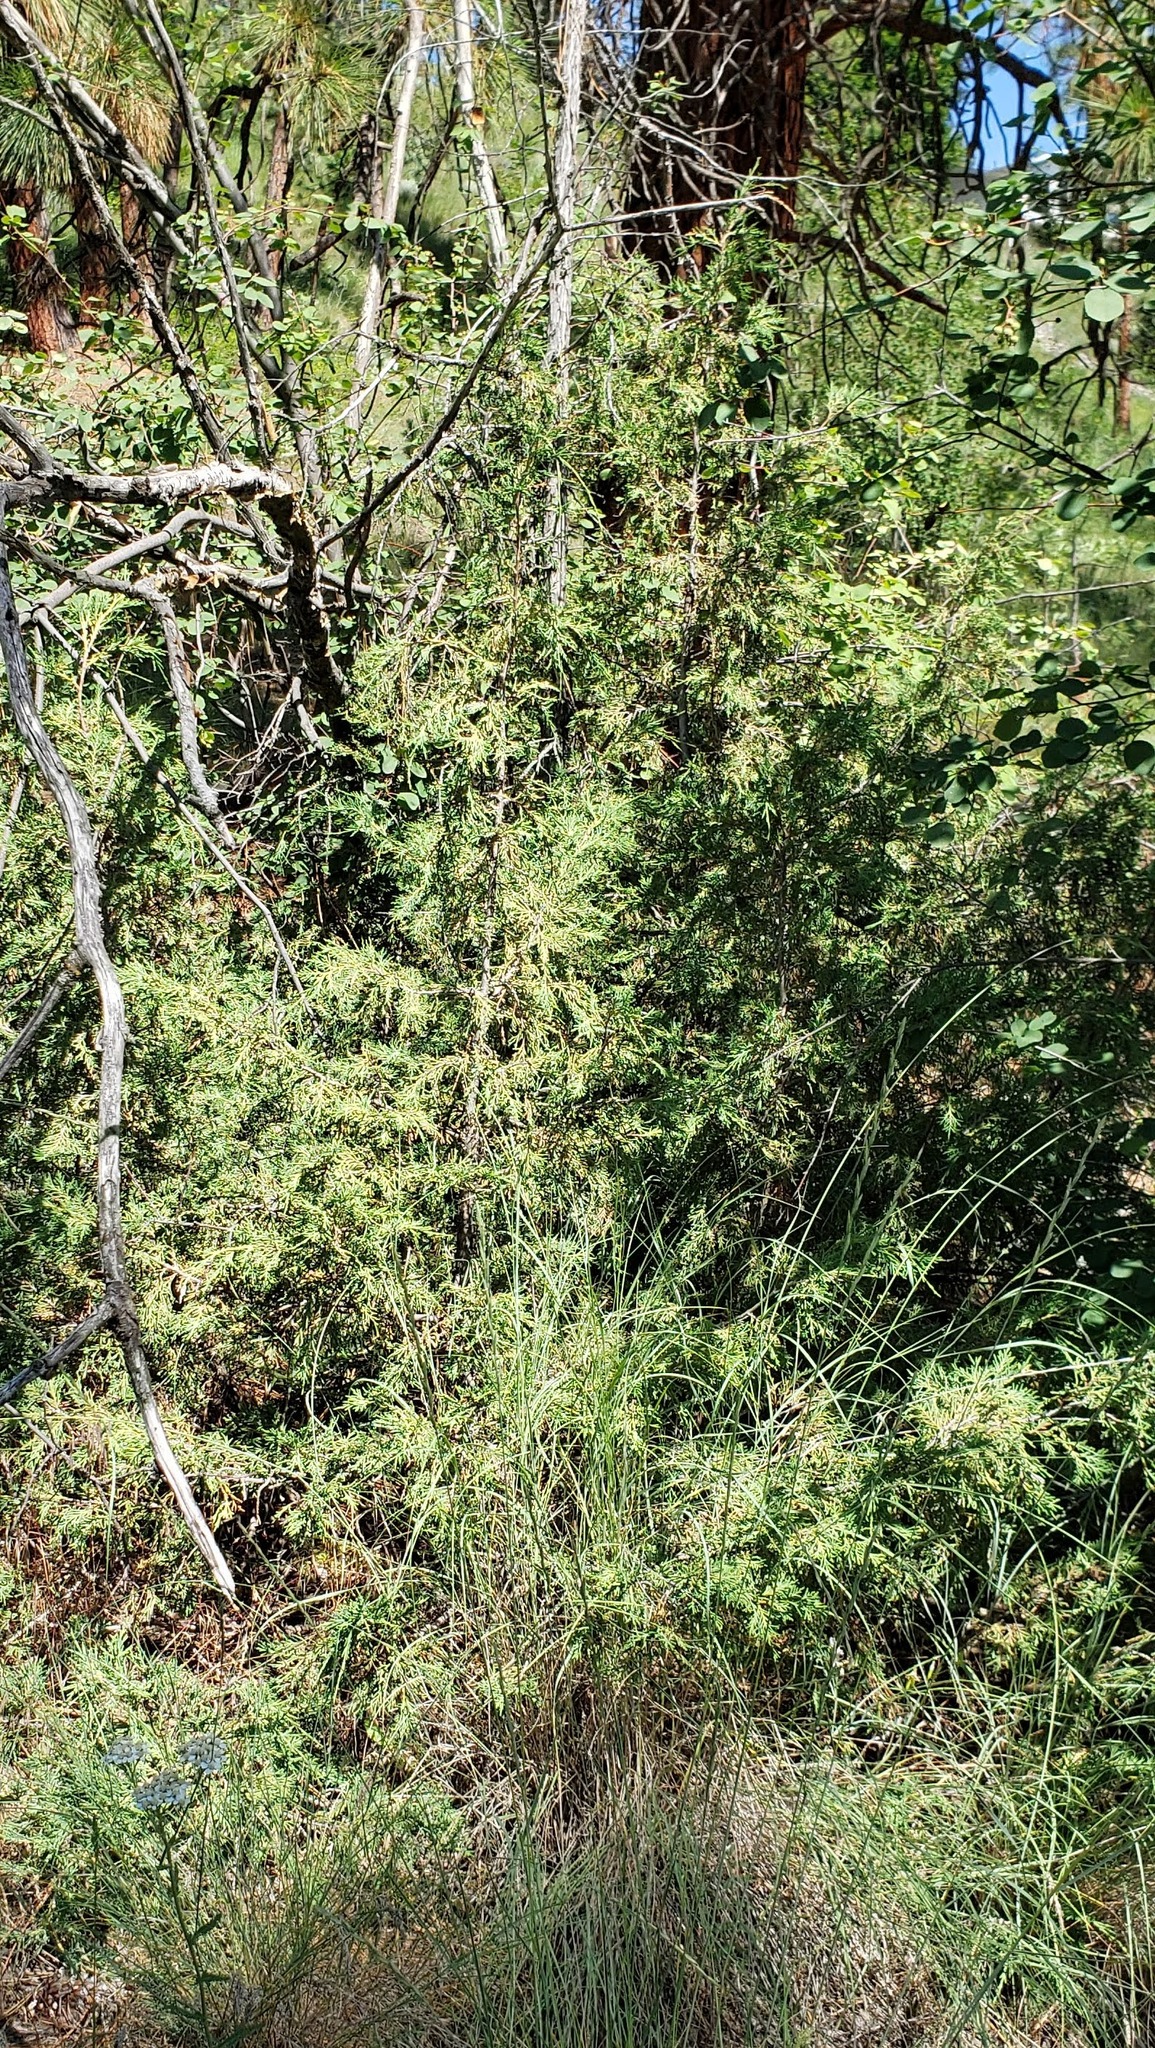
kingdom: Plantae
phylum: Tracheophyta
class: Pinopsida
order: Pinales
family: Cupressaceae
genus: Juniperus
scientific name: Juniperus scopulorum
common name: Rocky mountain juniper
